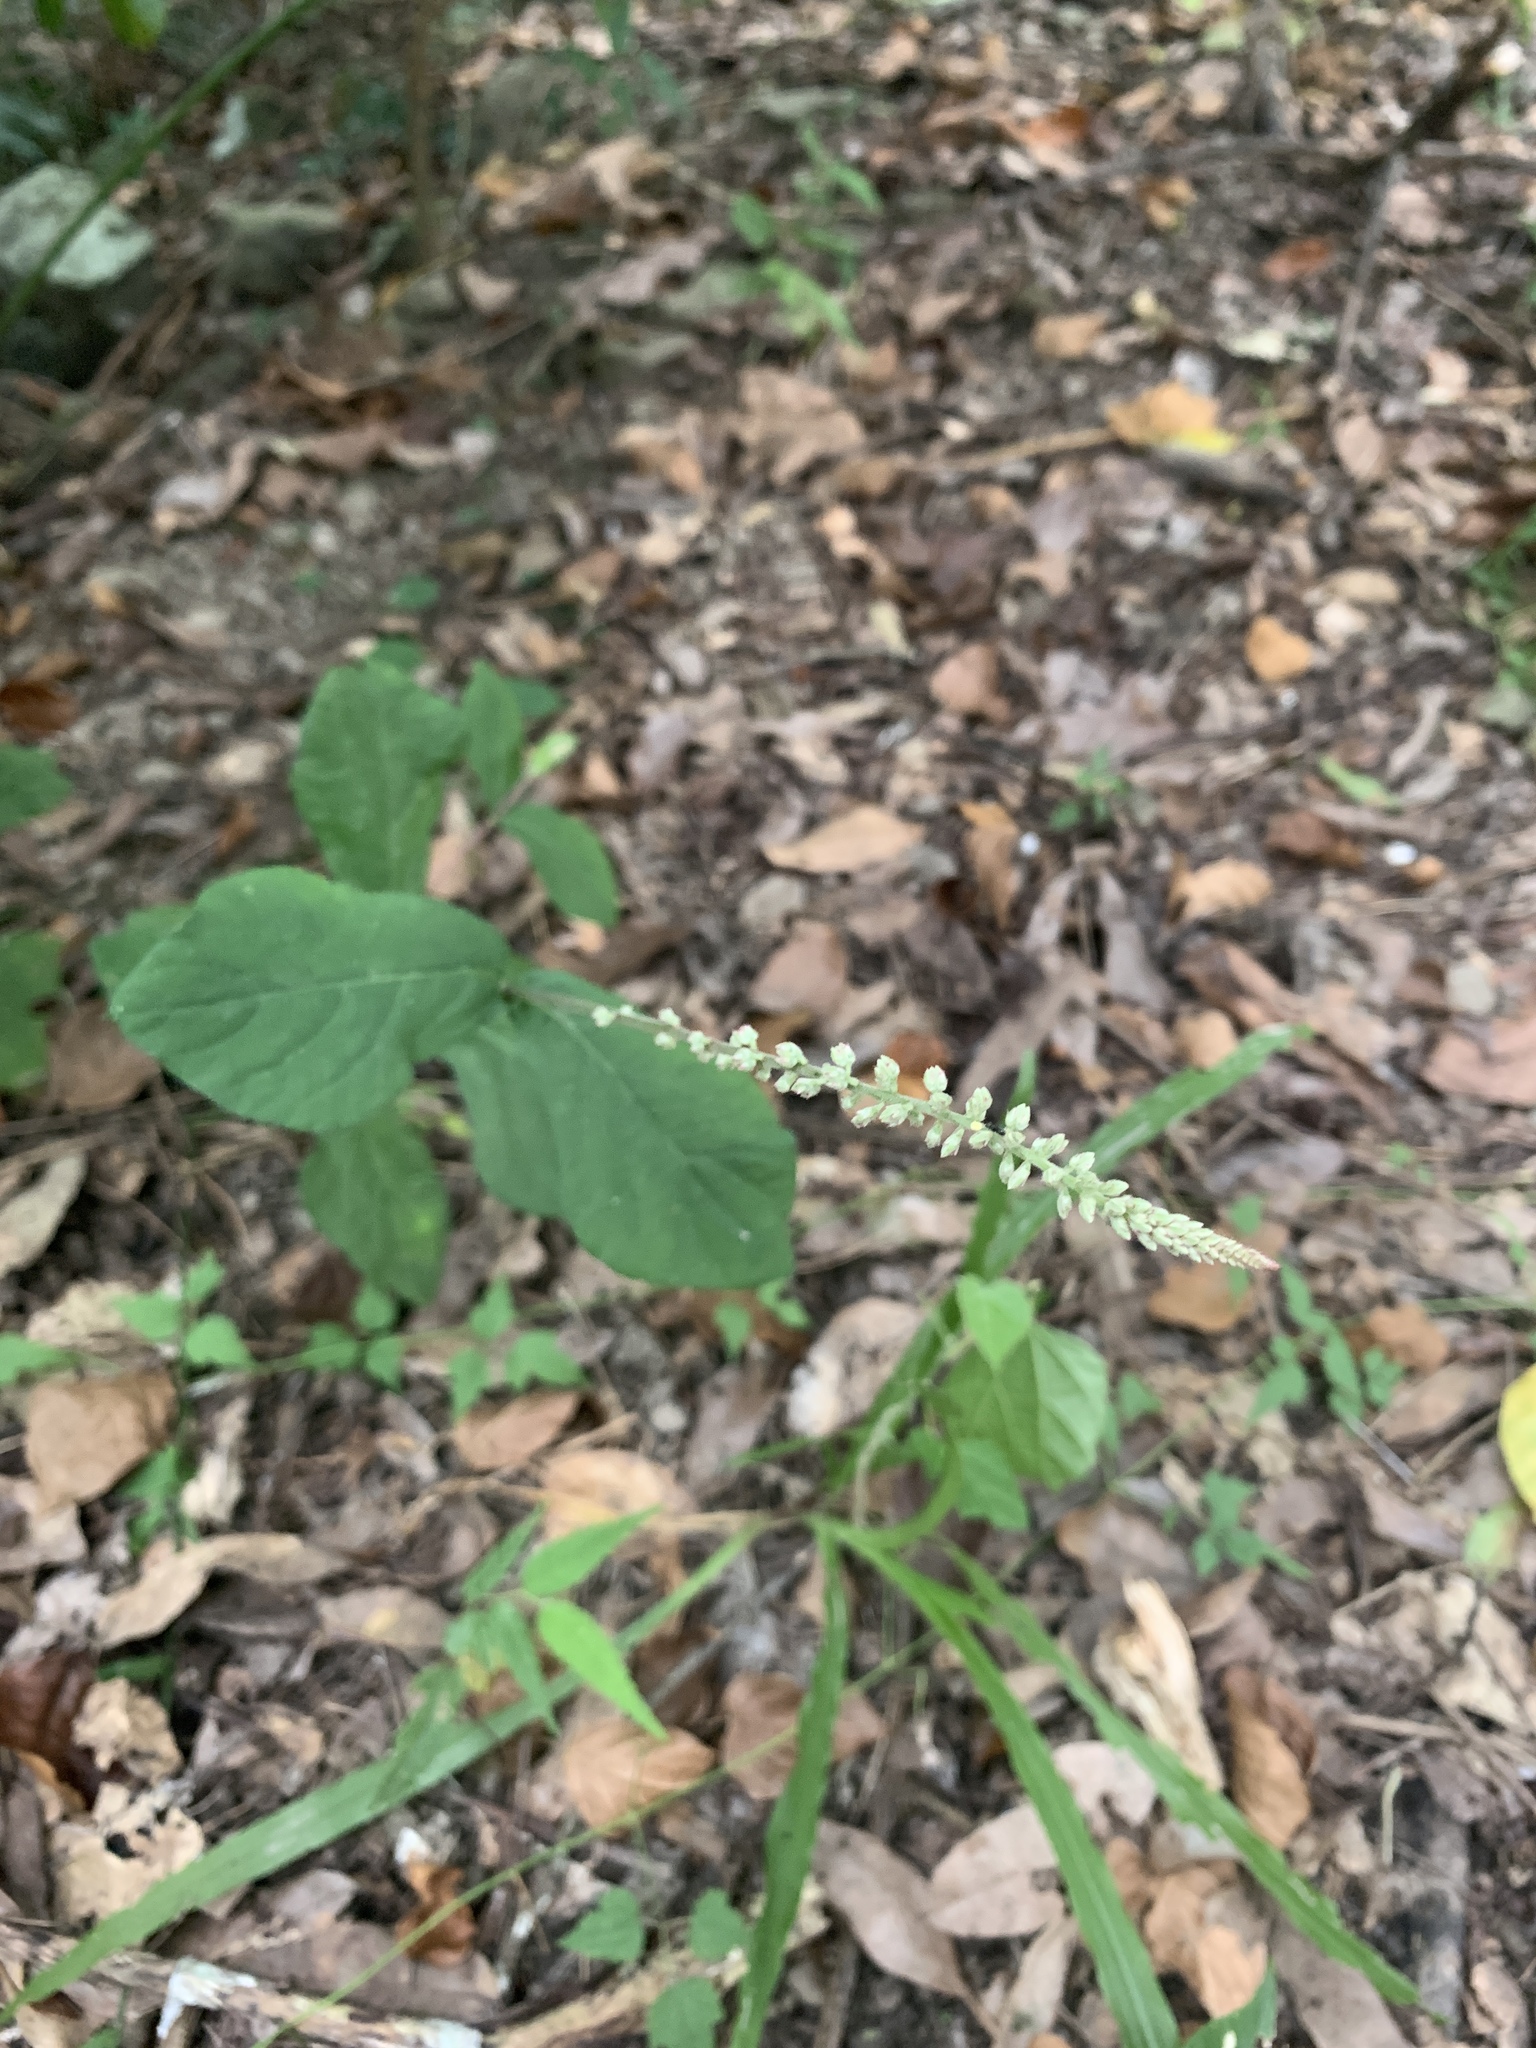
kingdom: Plantae
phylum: Tracheophyta
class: Magnoliopsida
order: Caryophyllales
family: Amaranthaceae
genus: Cyathula
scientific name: Cyathula prostrata
